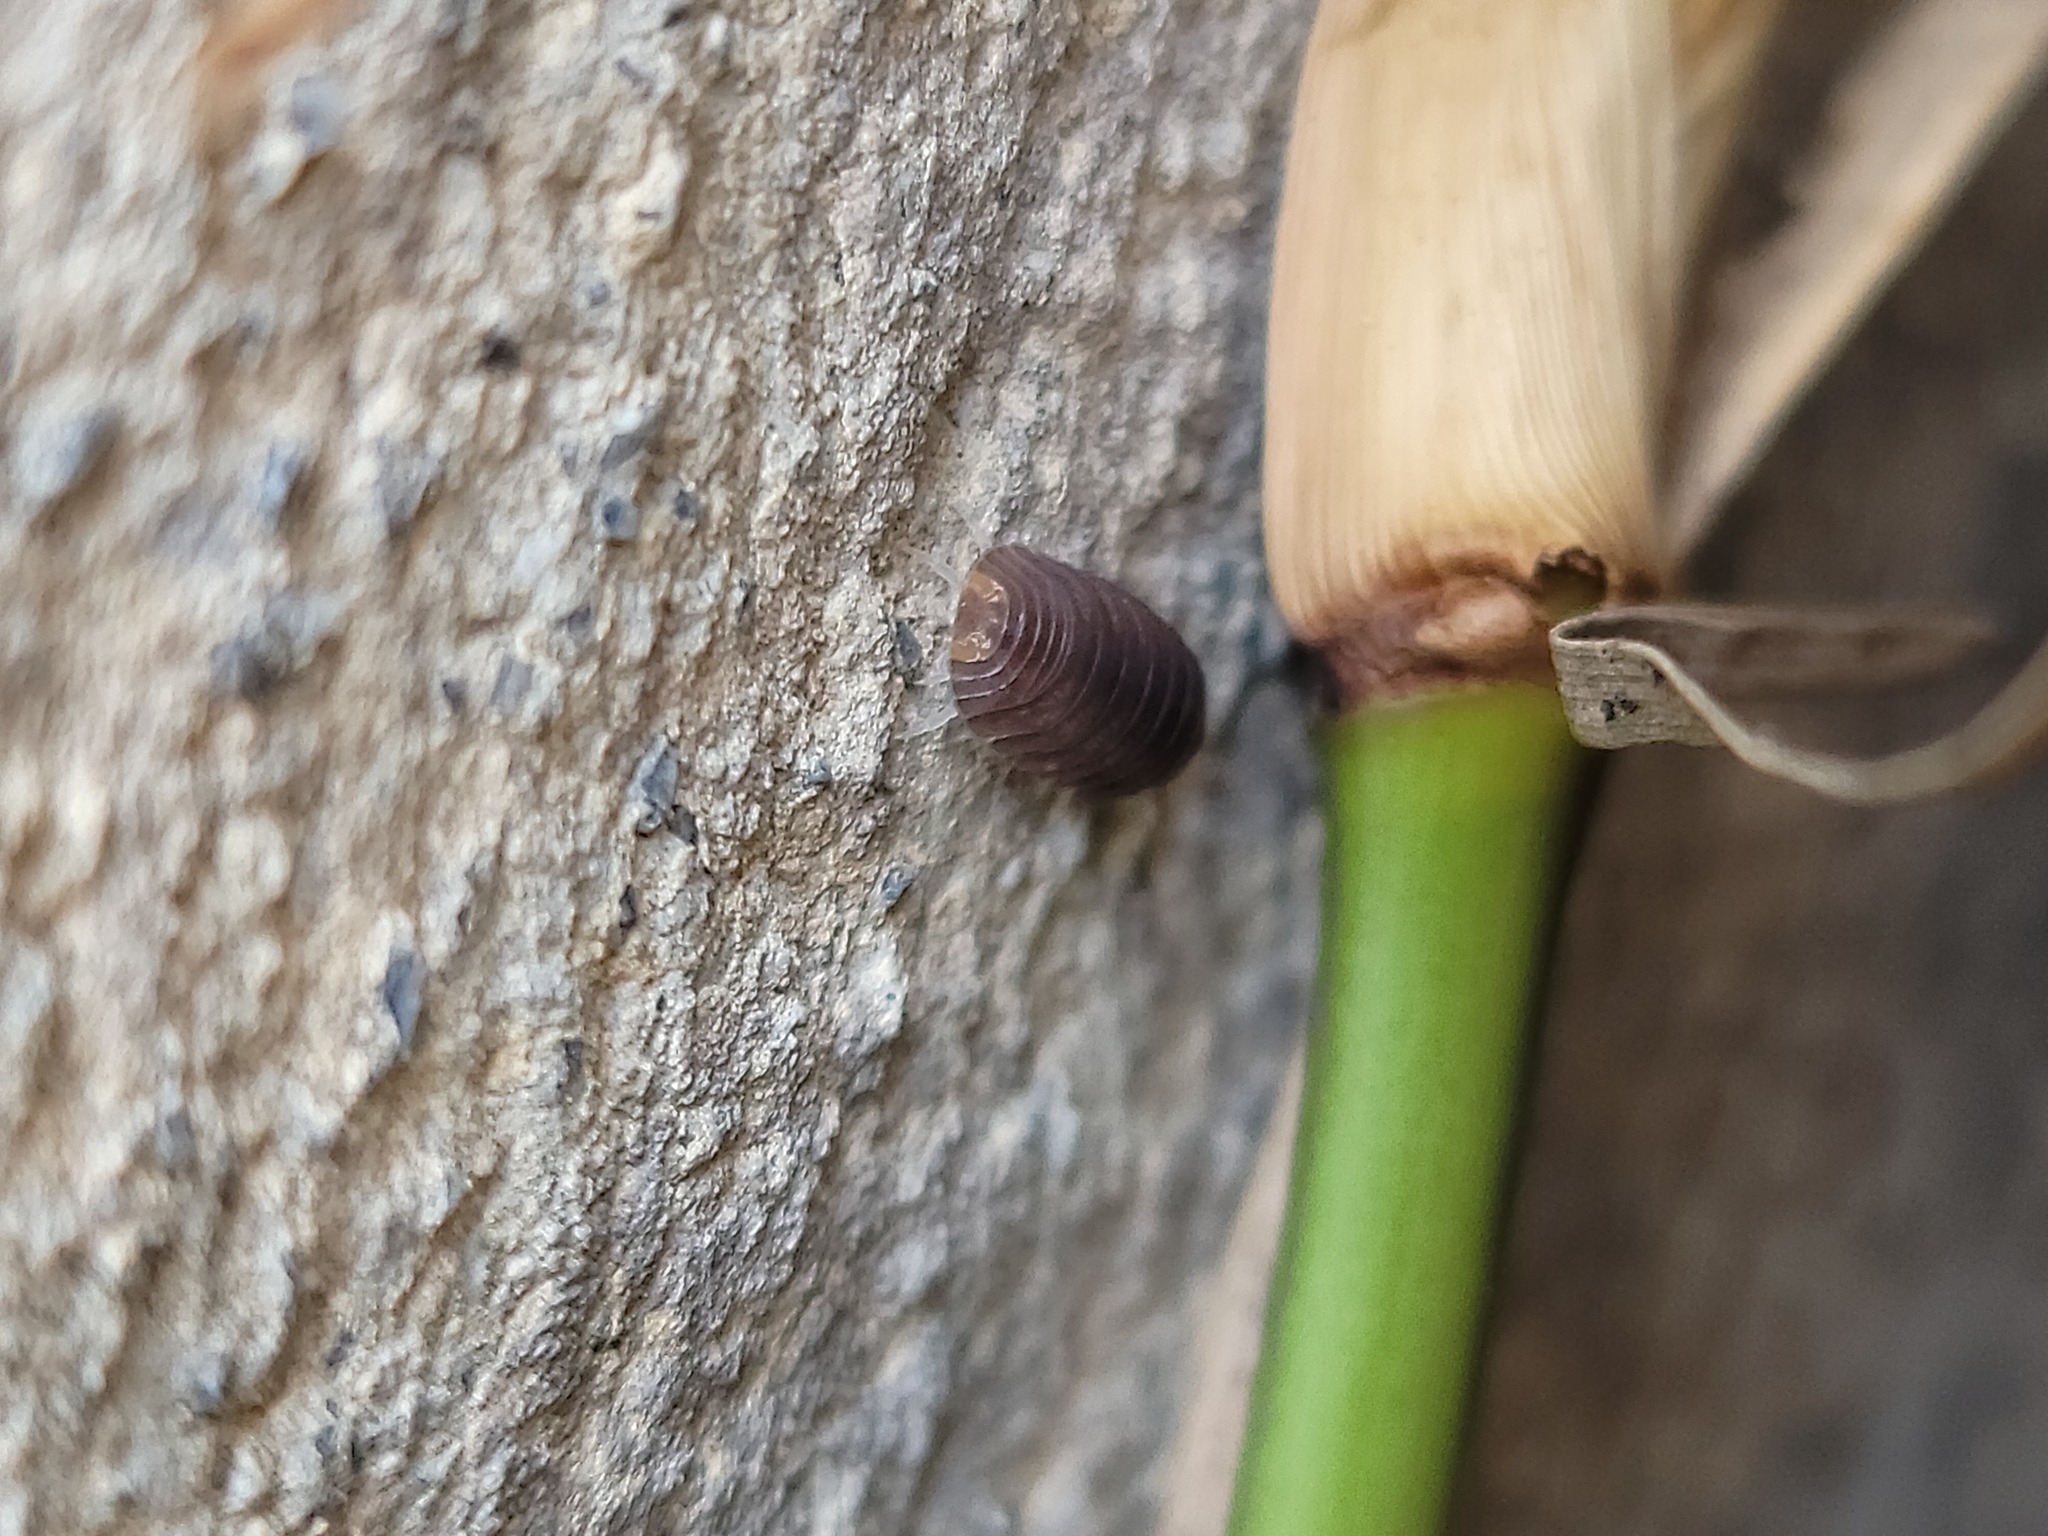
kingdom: Animalia
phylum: Arthropoda
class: Malacostraca
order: Isopoda
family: Armadillidae
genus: Cubaris
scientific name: Cubaris murina
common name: Pillbug
